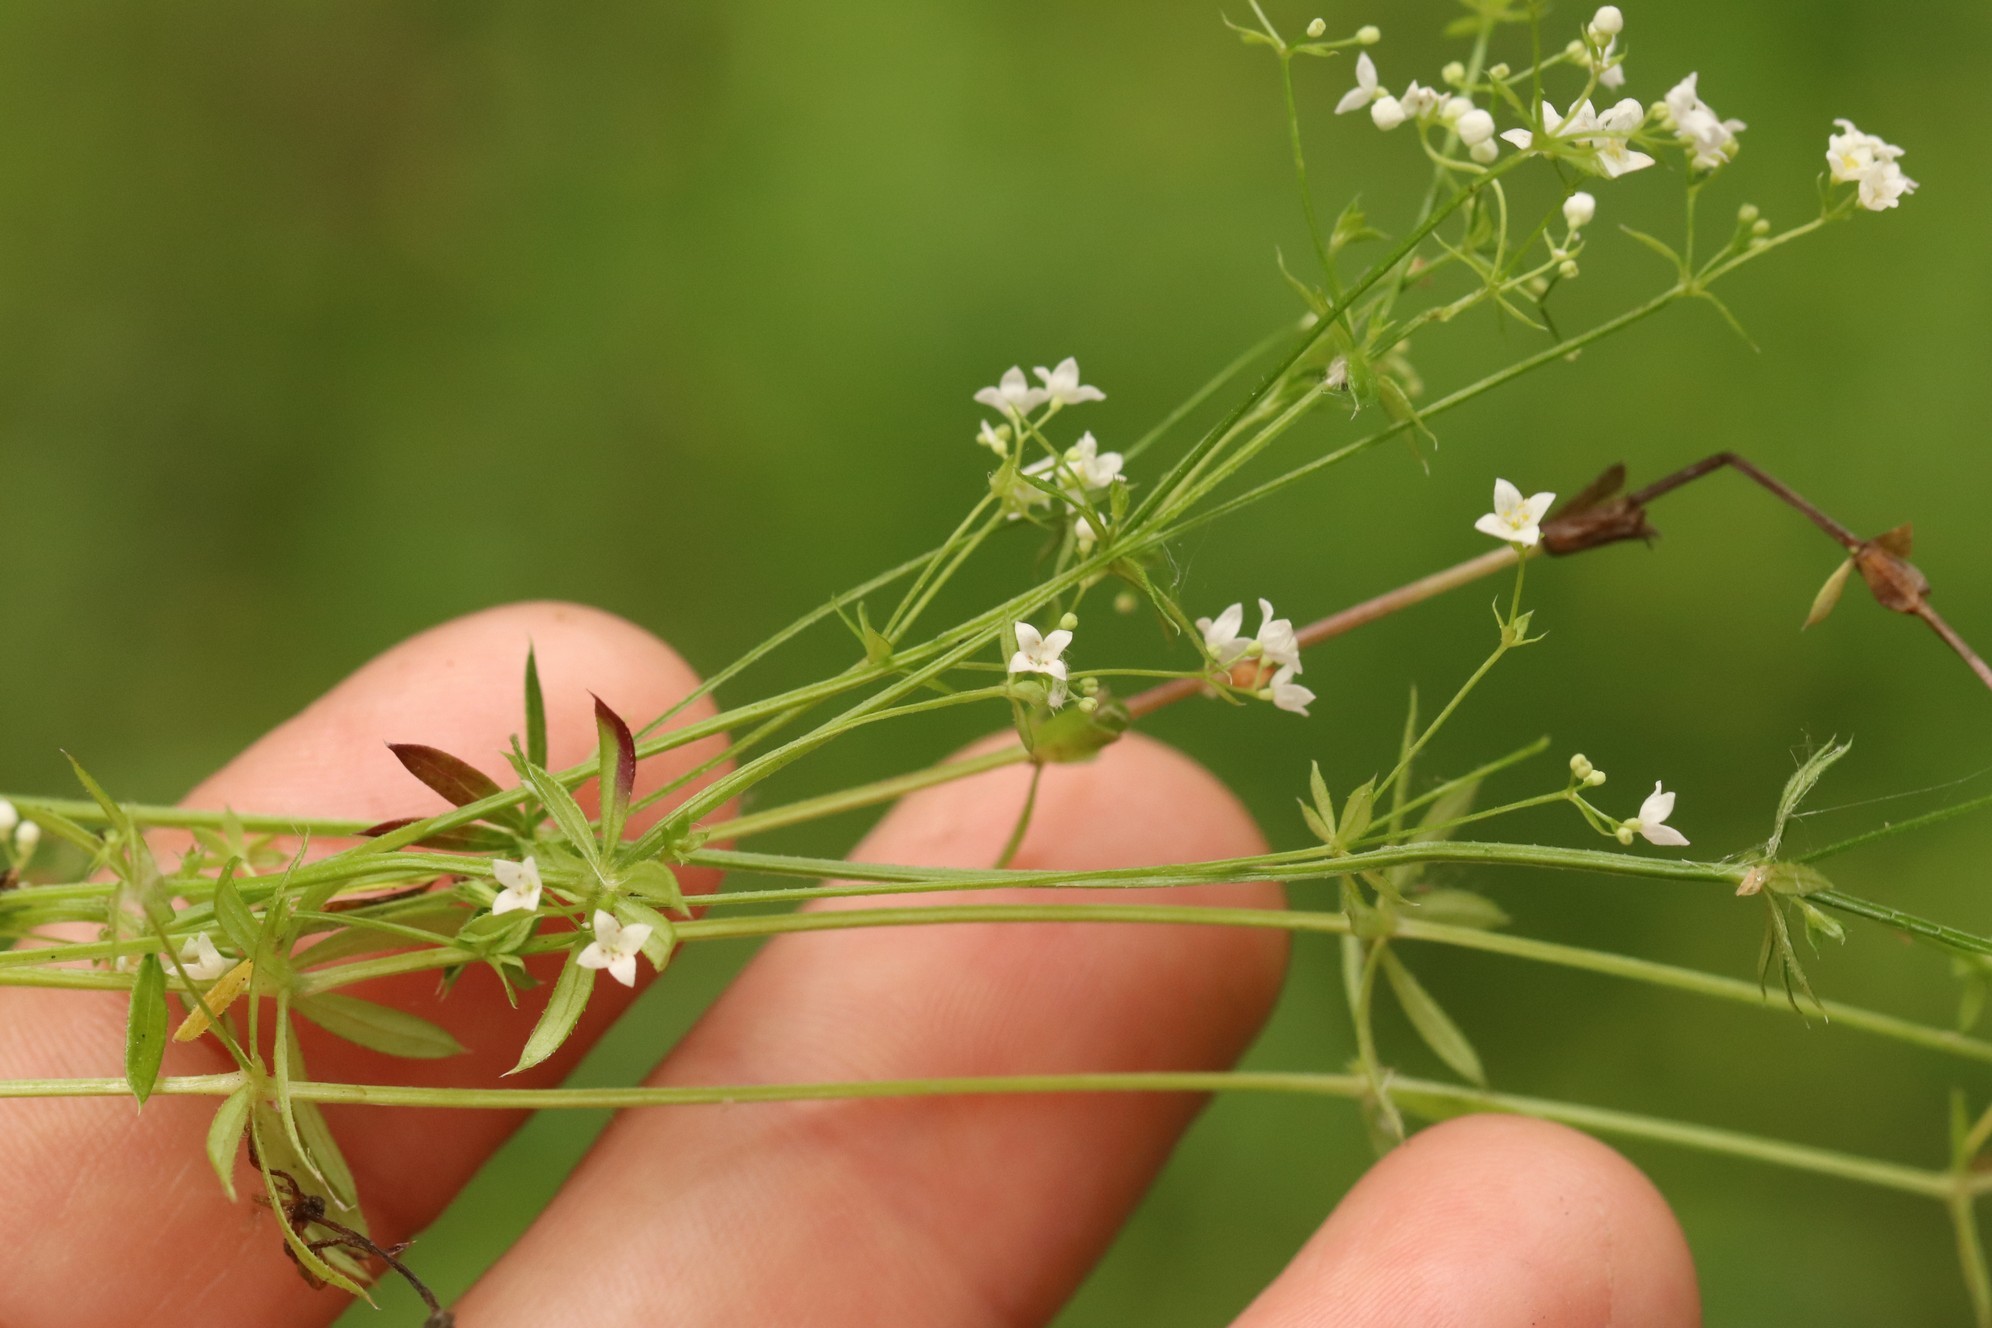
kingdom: Plantae
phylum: Tracheophyta
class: Magnoliopsida
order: Gentianales
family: Rubiaceae
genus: Galium
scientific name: Galium uliginosum
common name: Fen bedstraw
